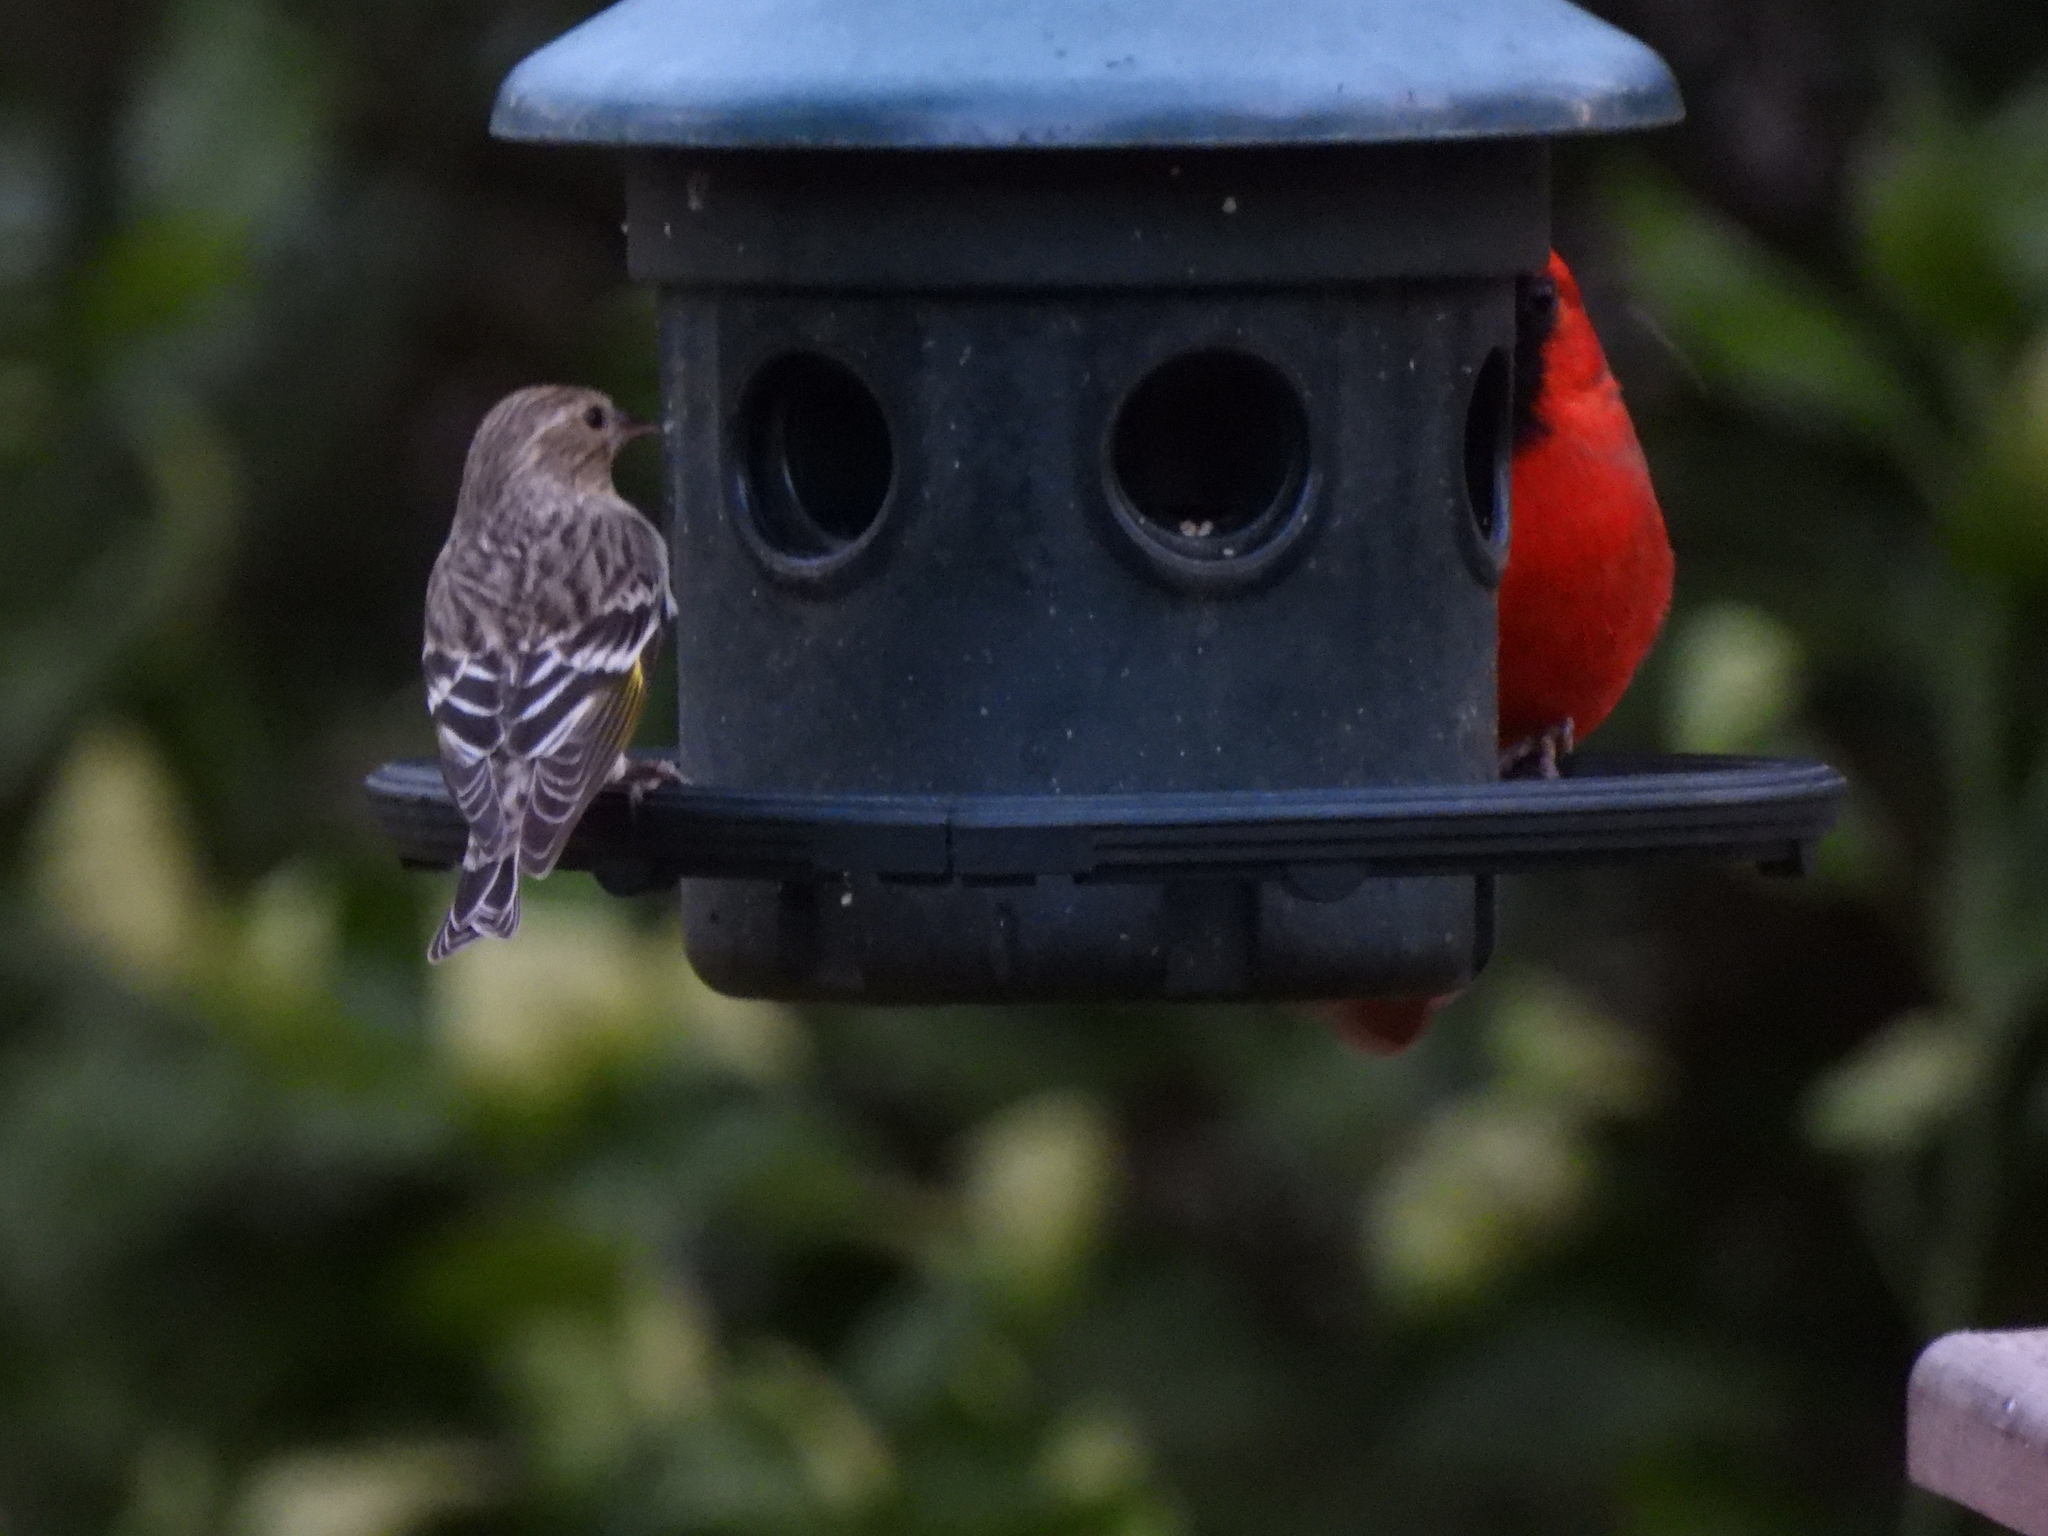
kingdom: Animalia
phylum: Chordata
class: Aves
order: Passeriformes
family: Fringillidae
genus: Spinus
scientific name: Spinus pinus
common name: Pine siskin
